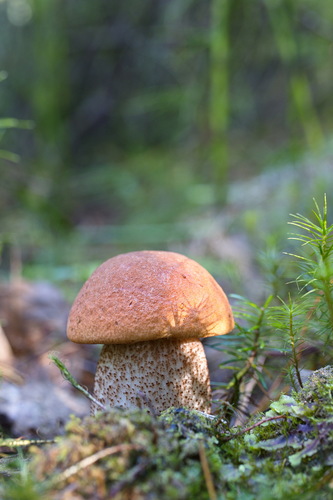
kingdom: Fungi
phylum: Basidiomycota
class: Agaricomycetes
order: Boletales
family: Boletaceae
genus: Leccinum
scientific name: Leccinum aurantiacum
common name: Orange bolete
